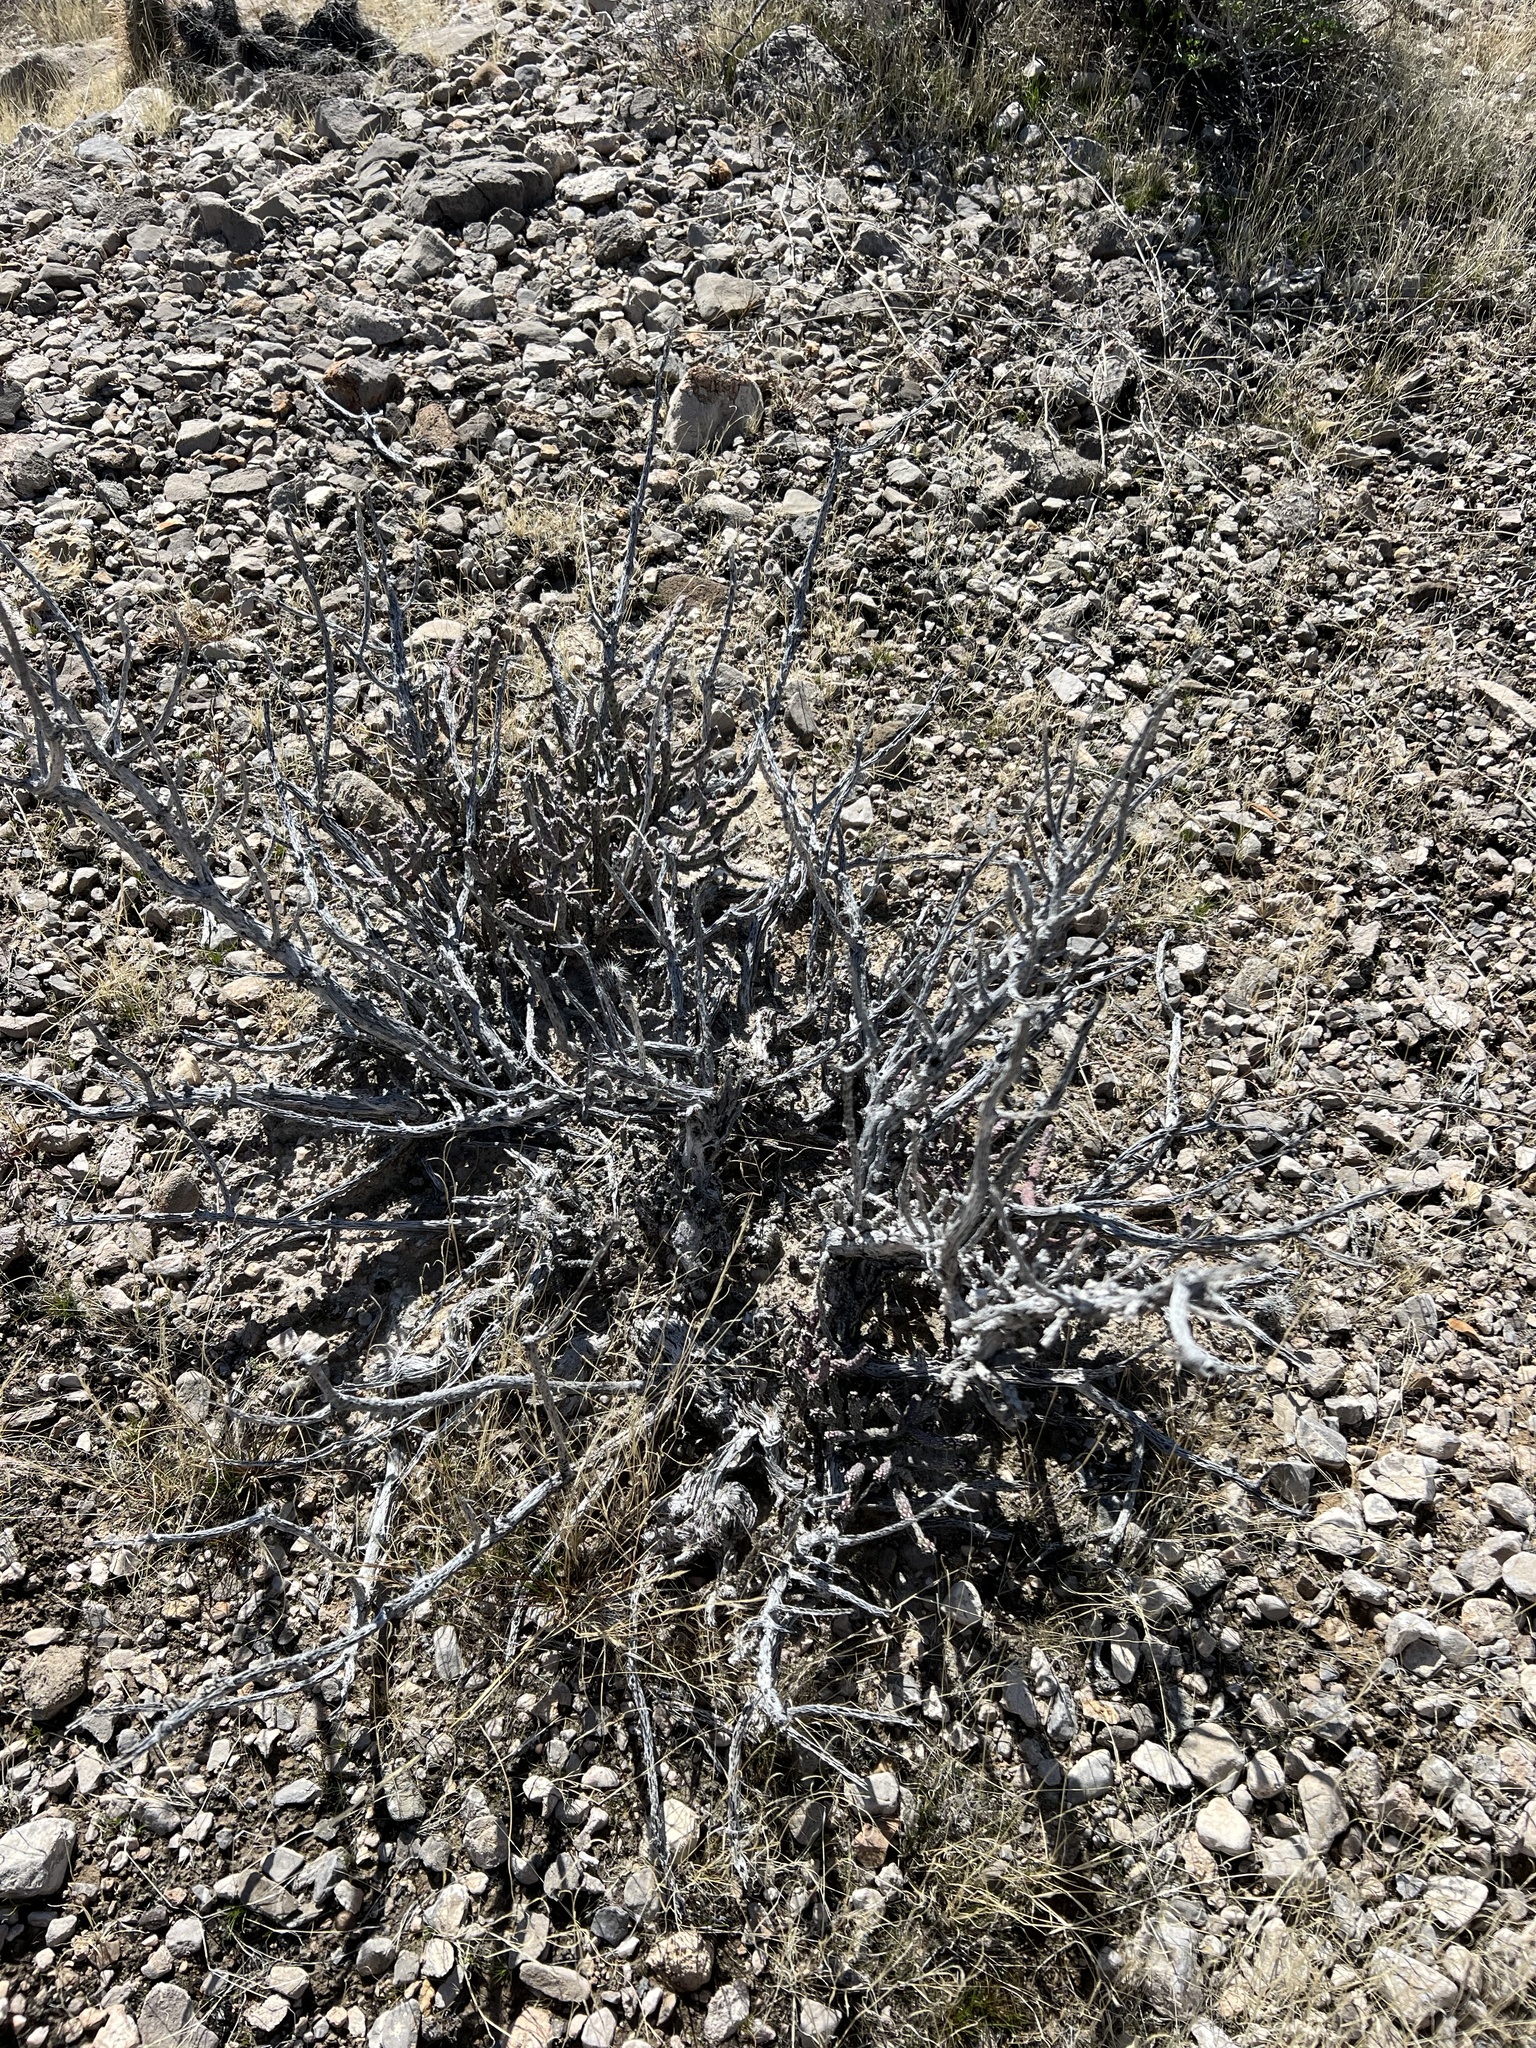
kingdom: Plantae
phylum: Tracheophyta
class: Magnoliopsida
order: Caryophyllales
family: Cactaceae
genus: Cylindropuntia
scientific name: Cylindropuntia ramosissima
